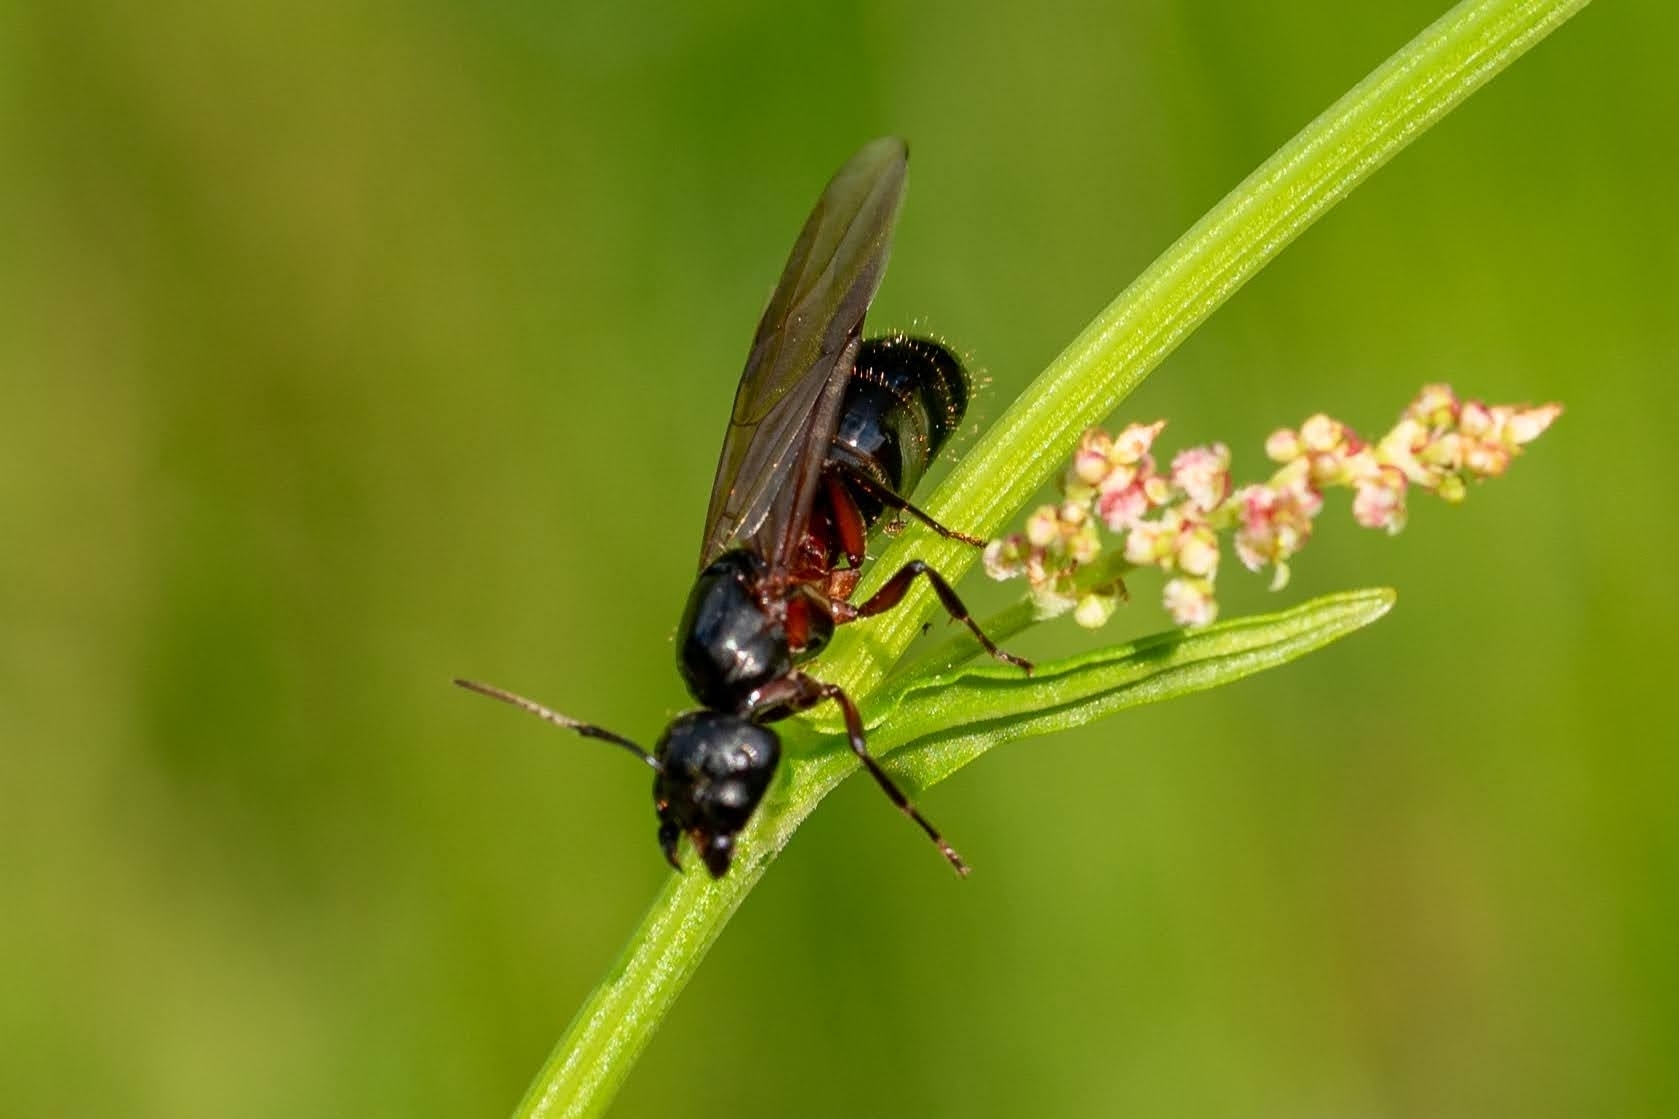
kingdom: Animalia
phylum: Arthropoda
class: Insecta
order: Hymenoptera
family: Formicidae
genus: Camponotus
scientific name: Camponotus herculeanus
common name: Hercules ant
